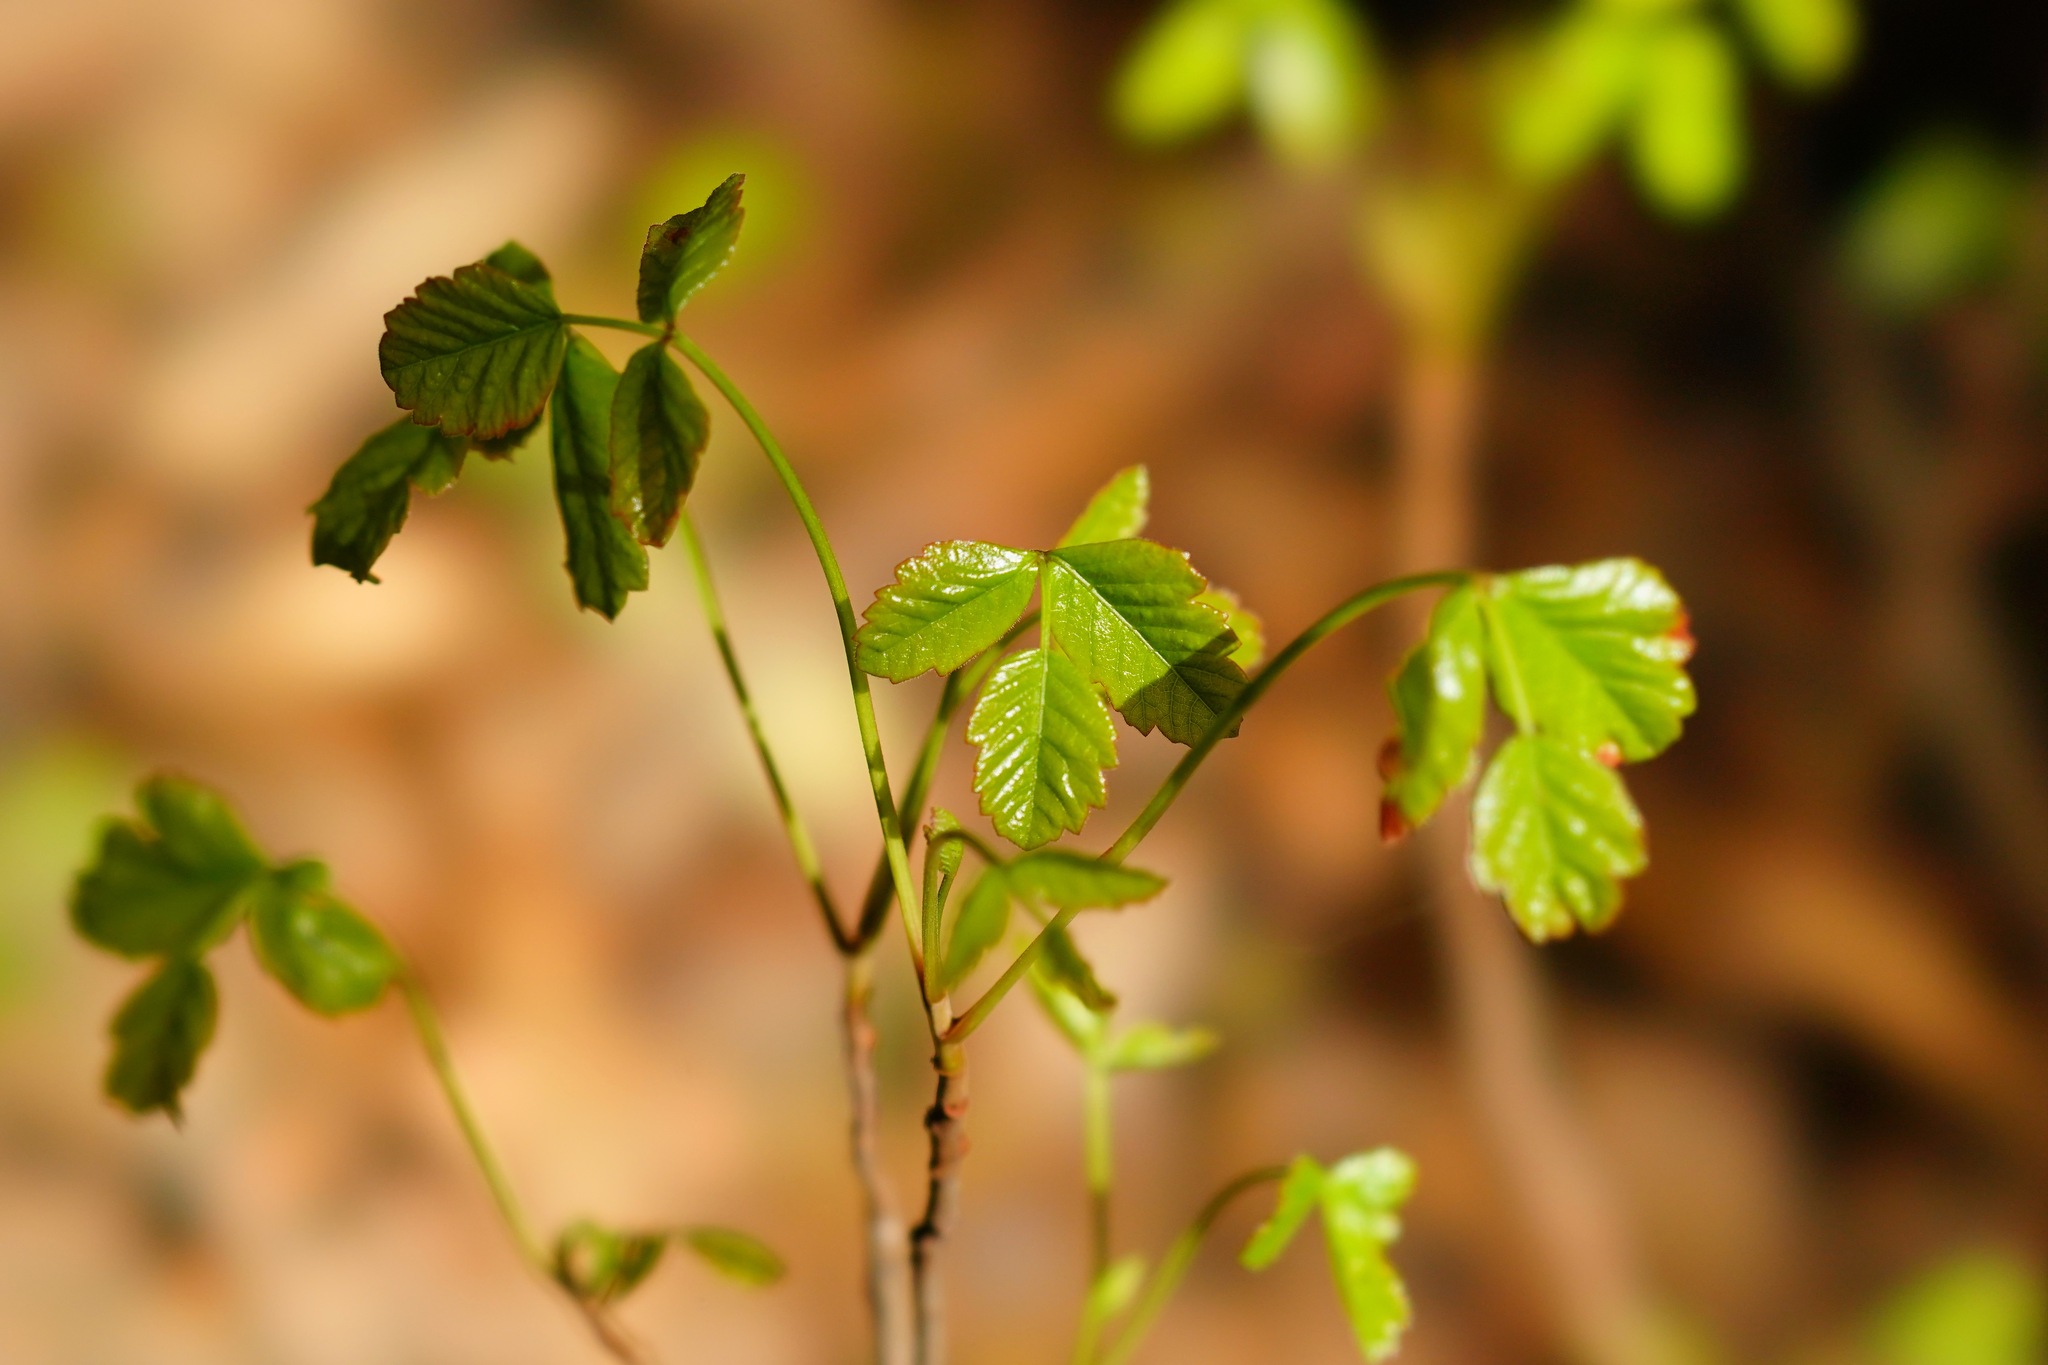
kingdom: Plantae
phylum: Tracheophyta
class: Magnoliopsida
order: Sapindales
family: Anacardiaceae
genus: Toxicodendron
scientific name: Toxicodendron diversilobum
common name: Pacific poison-oak
